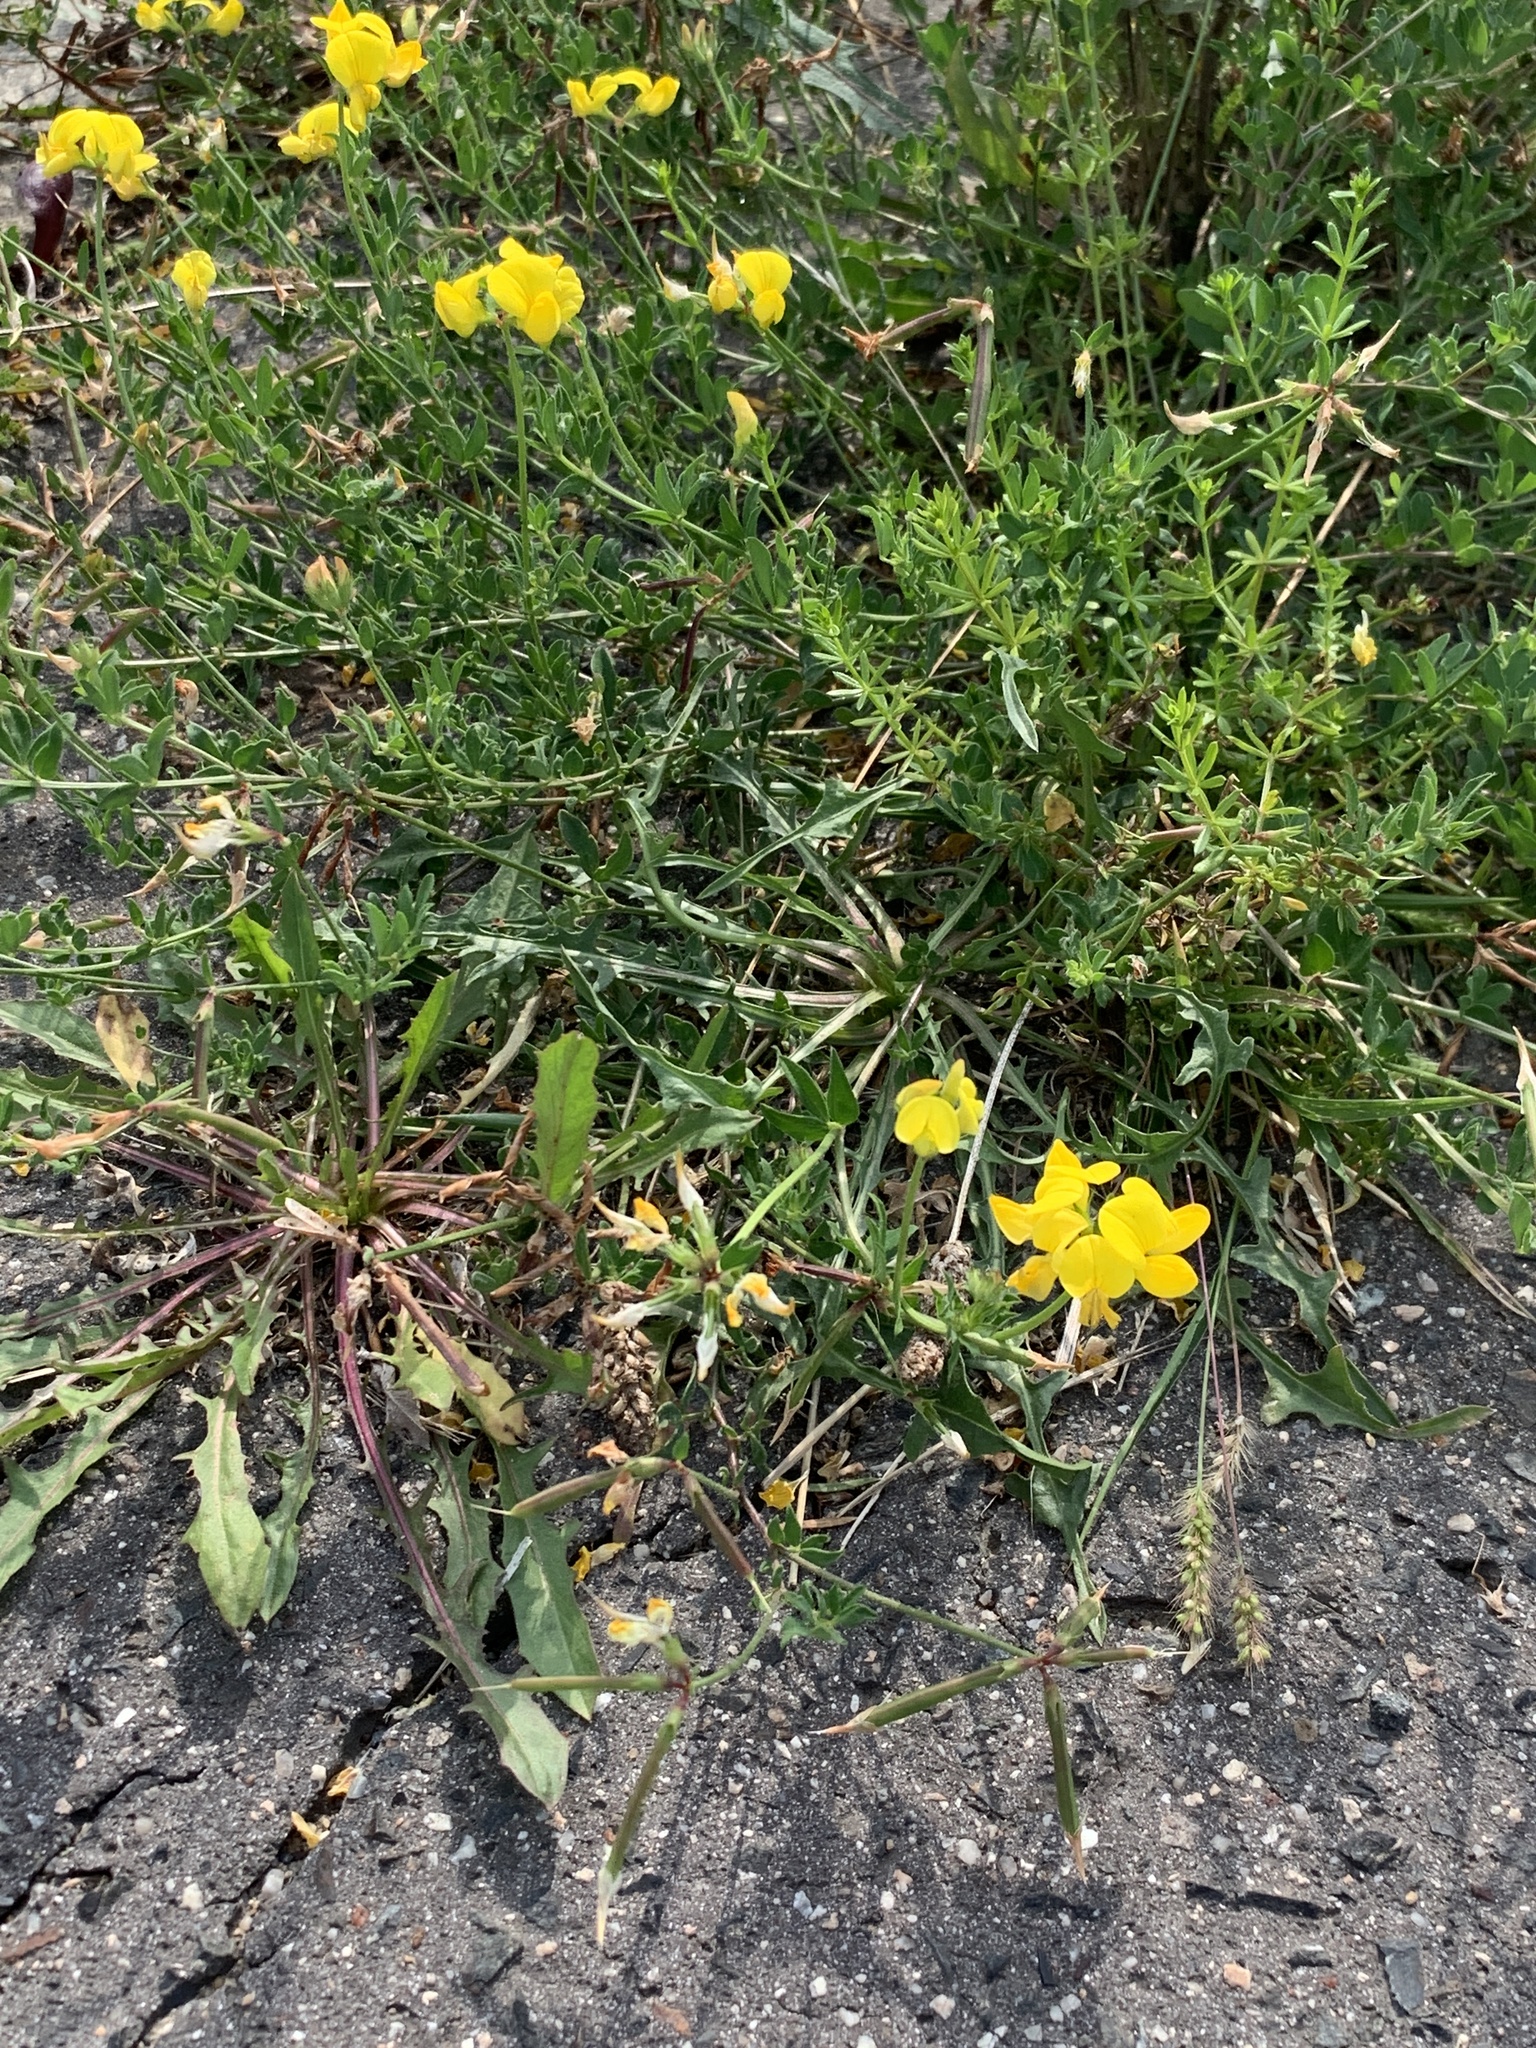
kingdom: Plantae
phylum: Tracheophyta
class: Magnoliopsida
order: Fabales
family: Fabaceae
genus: Lotus
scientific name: Lotus corniculatus
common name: Common bird's-foot-trefoil
